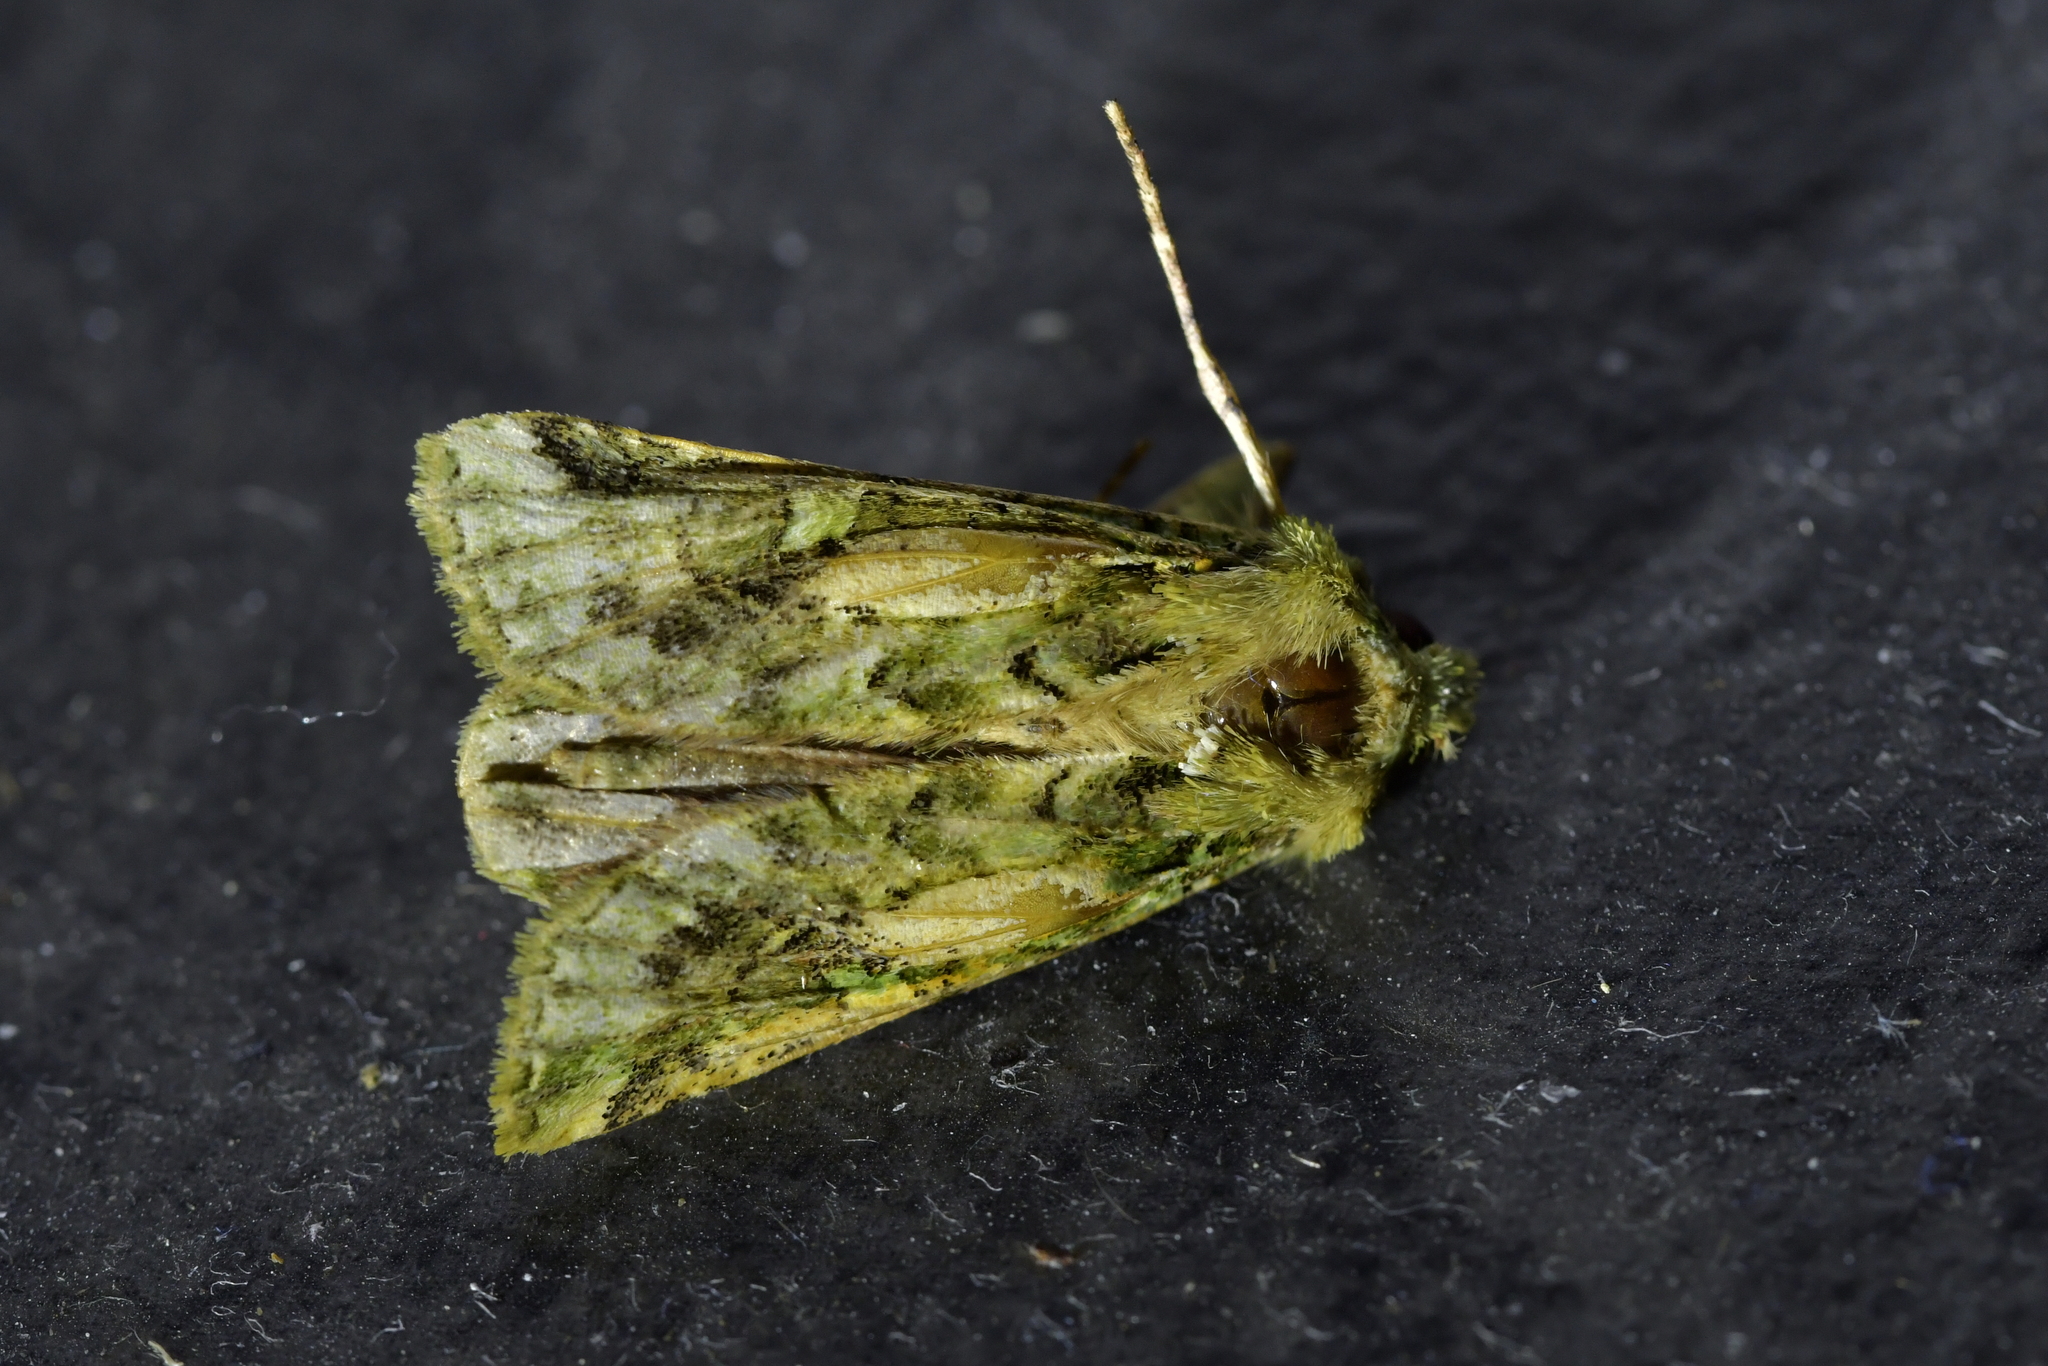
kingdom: Animalia
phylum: Arthropoda
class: Insecta
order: Lepidoptera
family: Noctuidae
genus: Feredayia
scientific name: Feredayia grammosa
